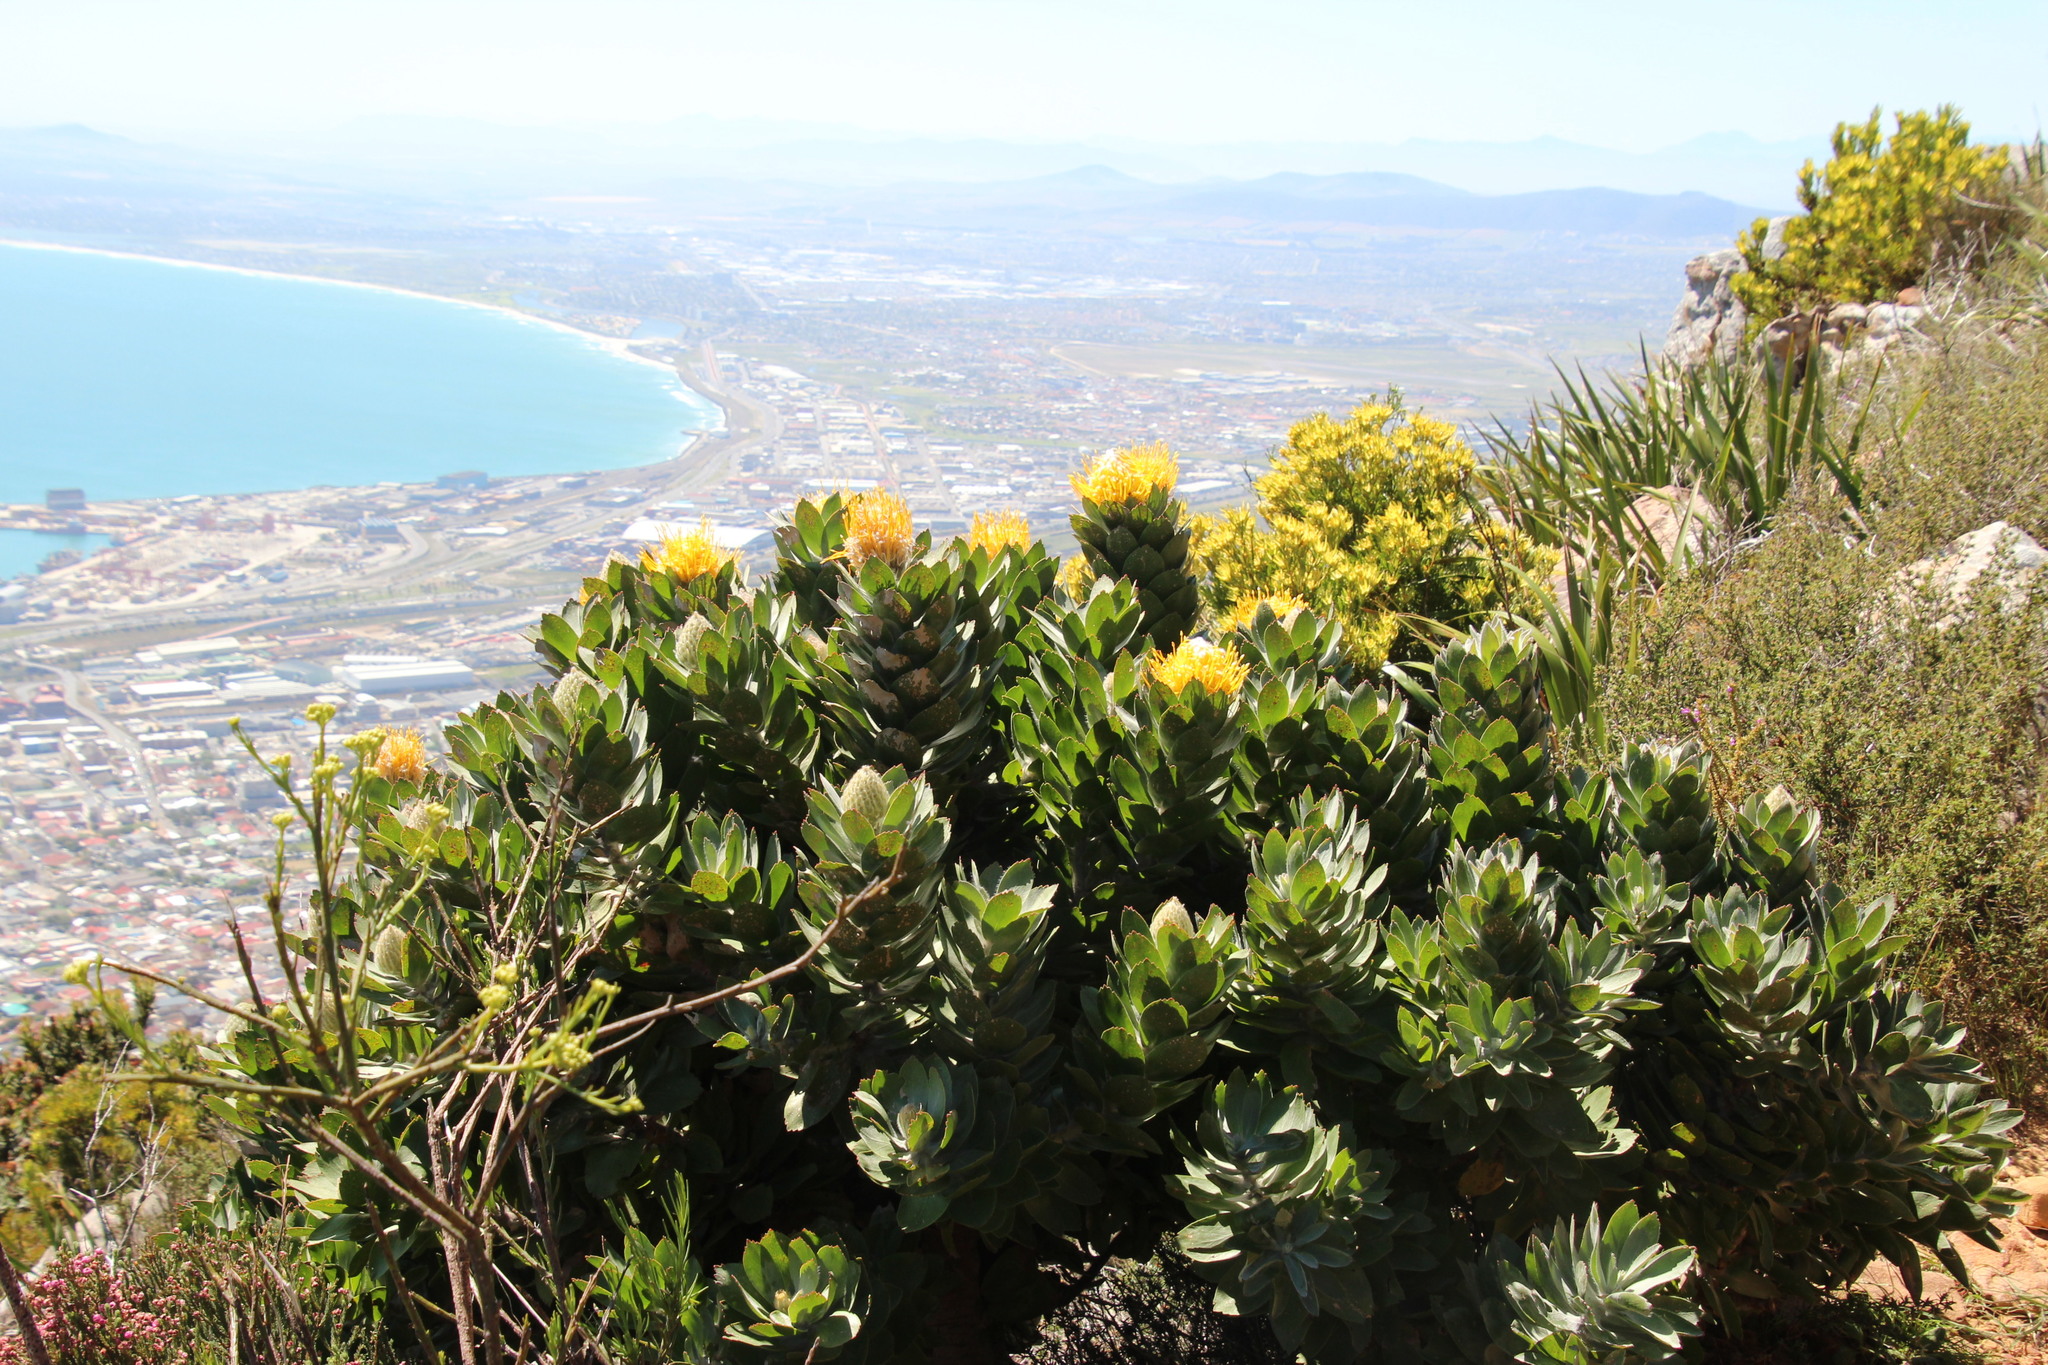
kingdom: Plantae
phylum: Tracheophyta
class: Magnoliopsida
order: Proteales
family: Proteaceae
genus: Leucospermum
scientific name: Leucospermum conocarpodendron
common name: Tree pincushion
